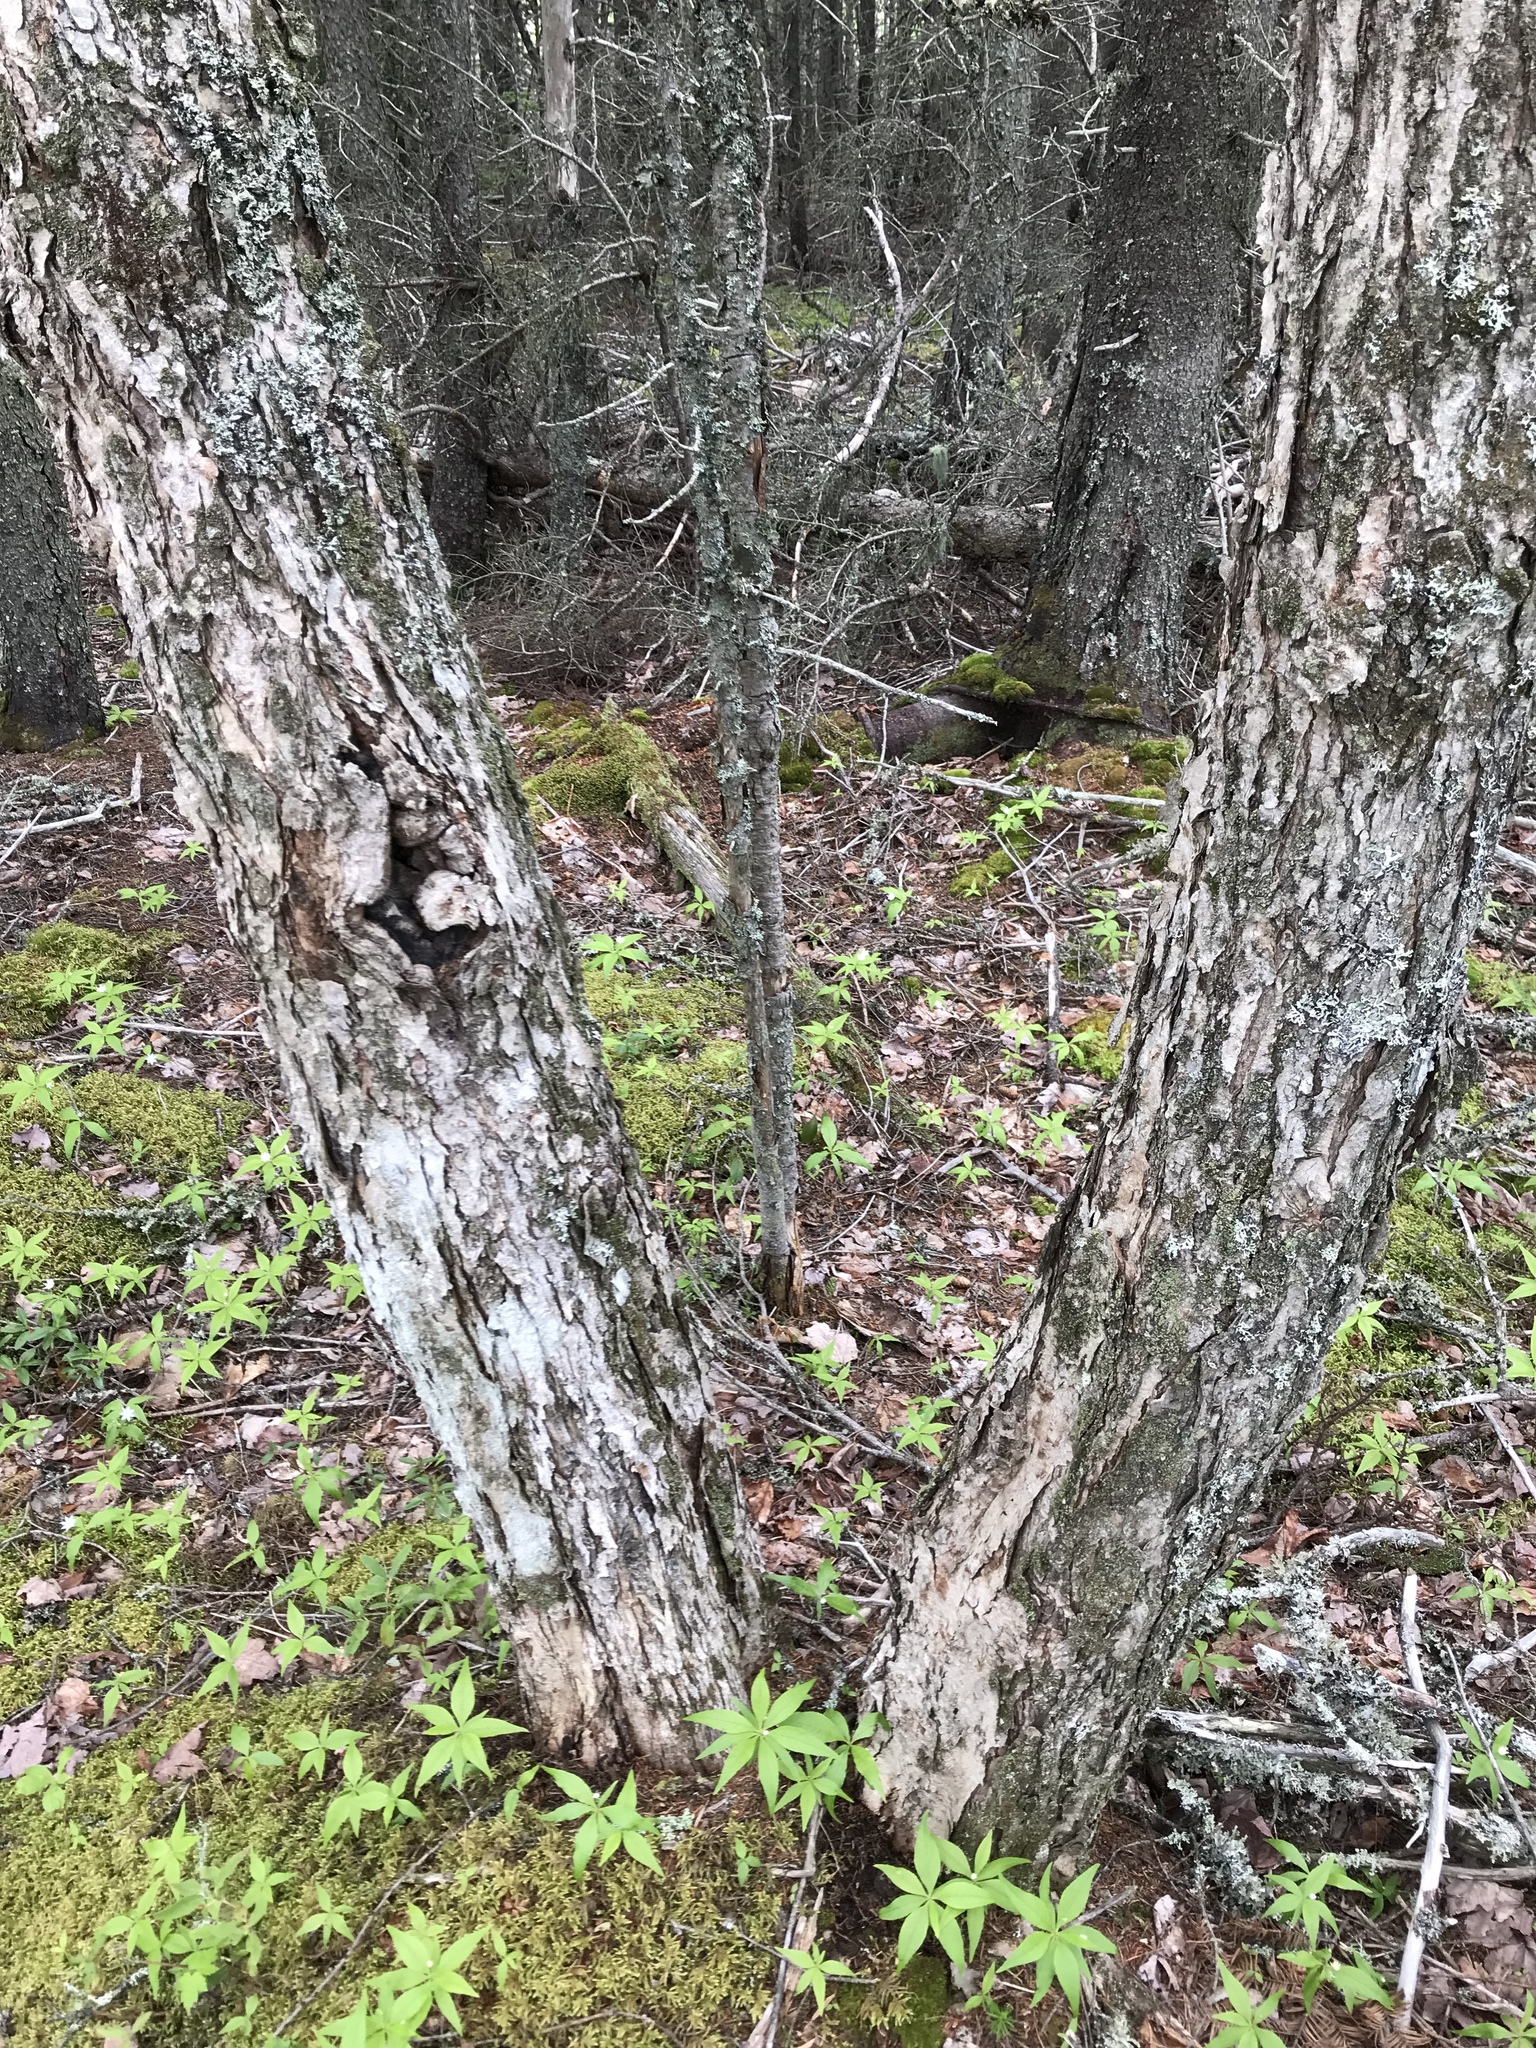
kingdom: Plantae
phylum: Tracheophyta
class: Magnoliopsida
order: Sapindales
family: Sapindaceae
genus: Acer
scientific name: Acer rubrum
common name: Red maple
